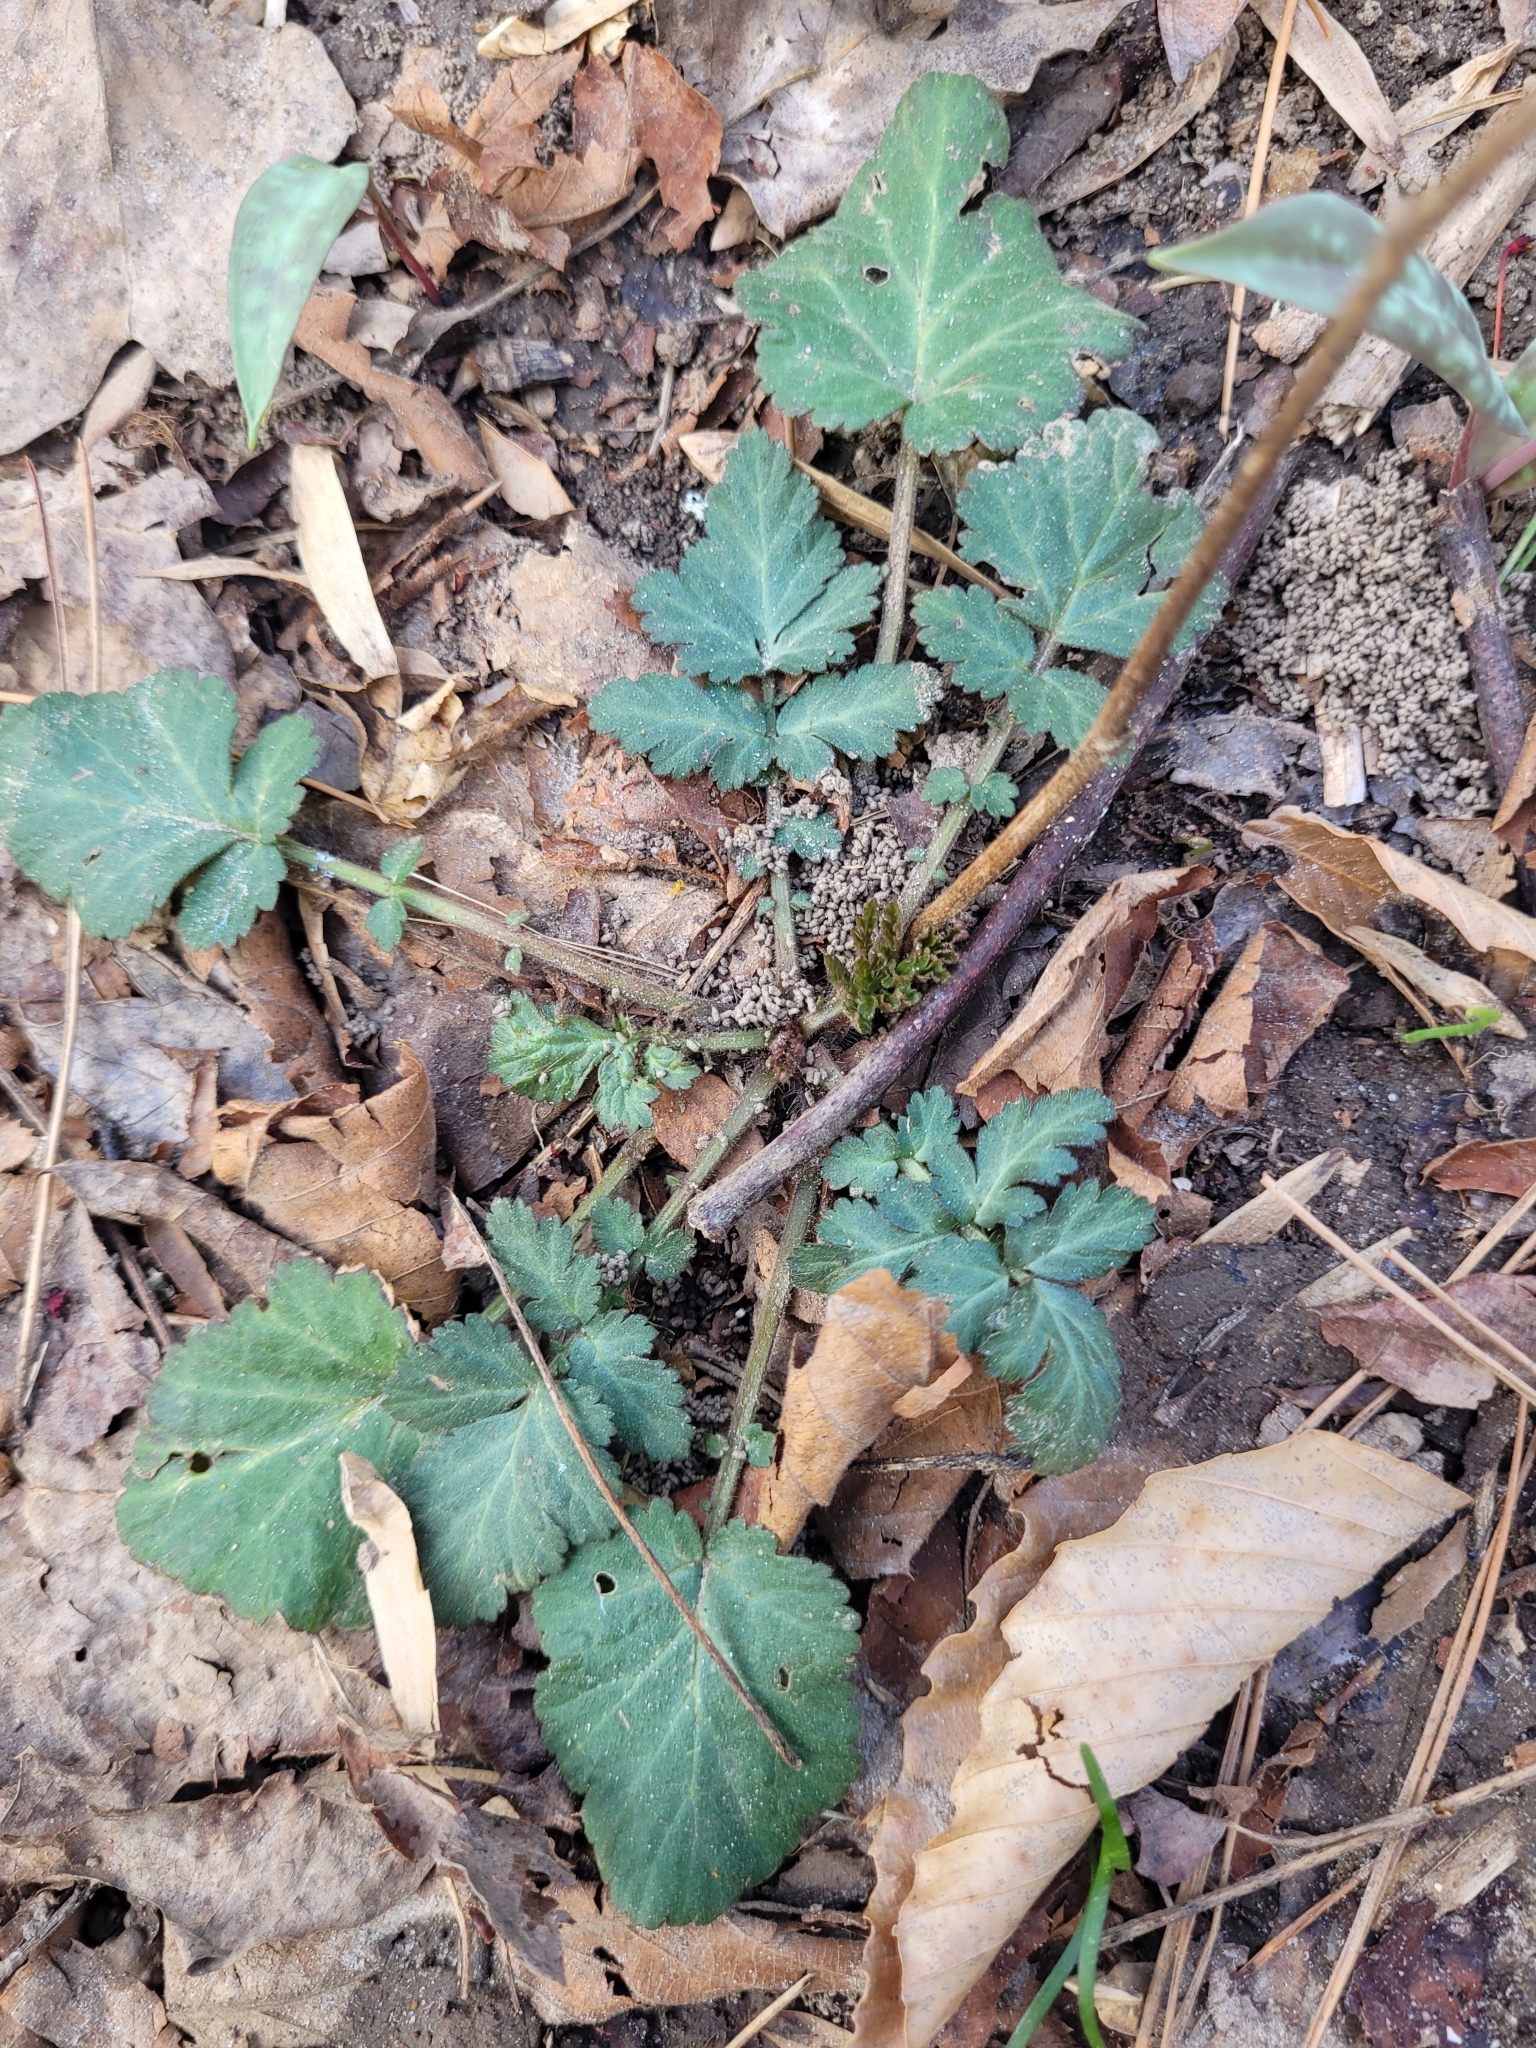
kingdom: Plantae
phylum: Tracheophyta
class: Magnoliopsida
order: Rosales
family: Rosaceae
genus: Geum
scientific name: Geum canadense
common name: White avens
